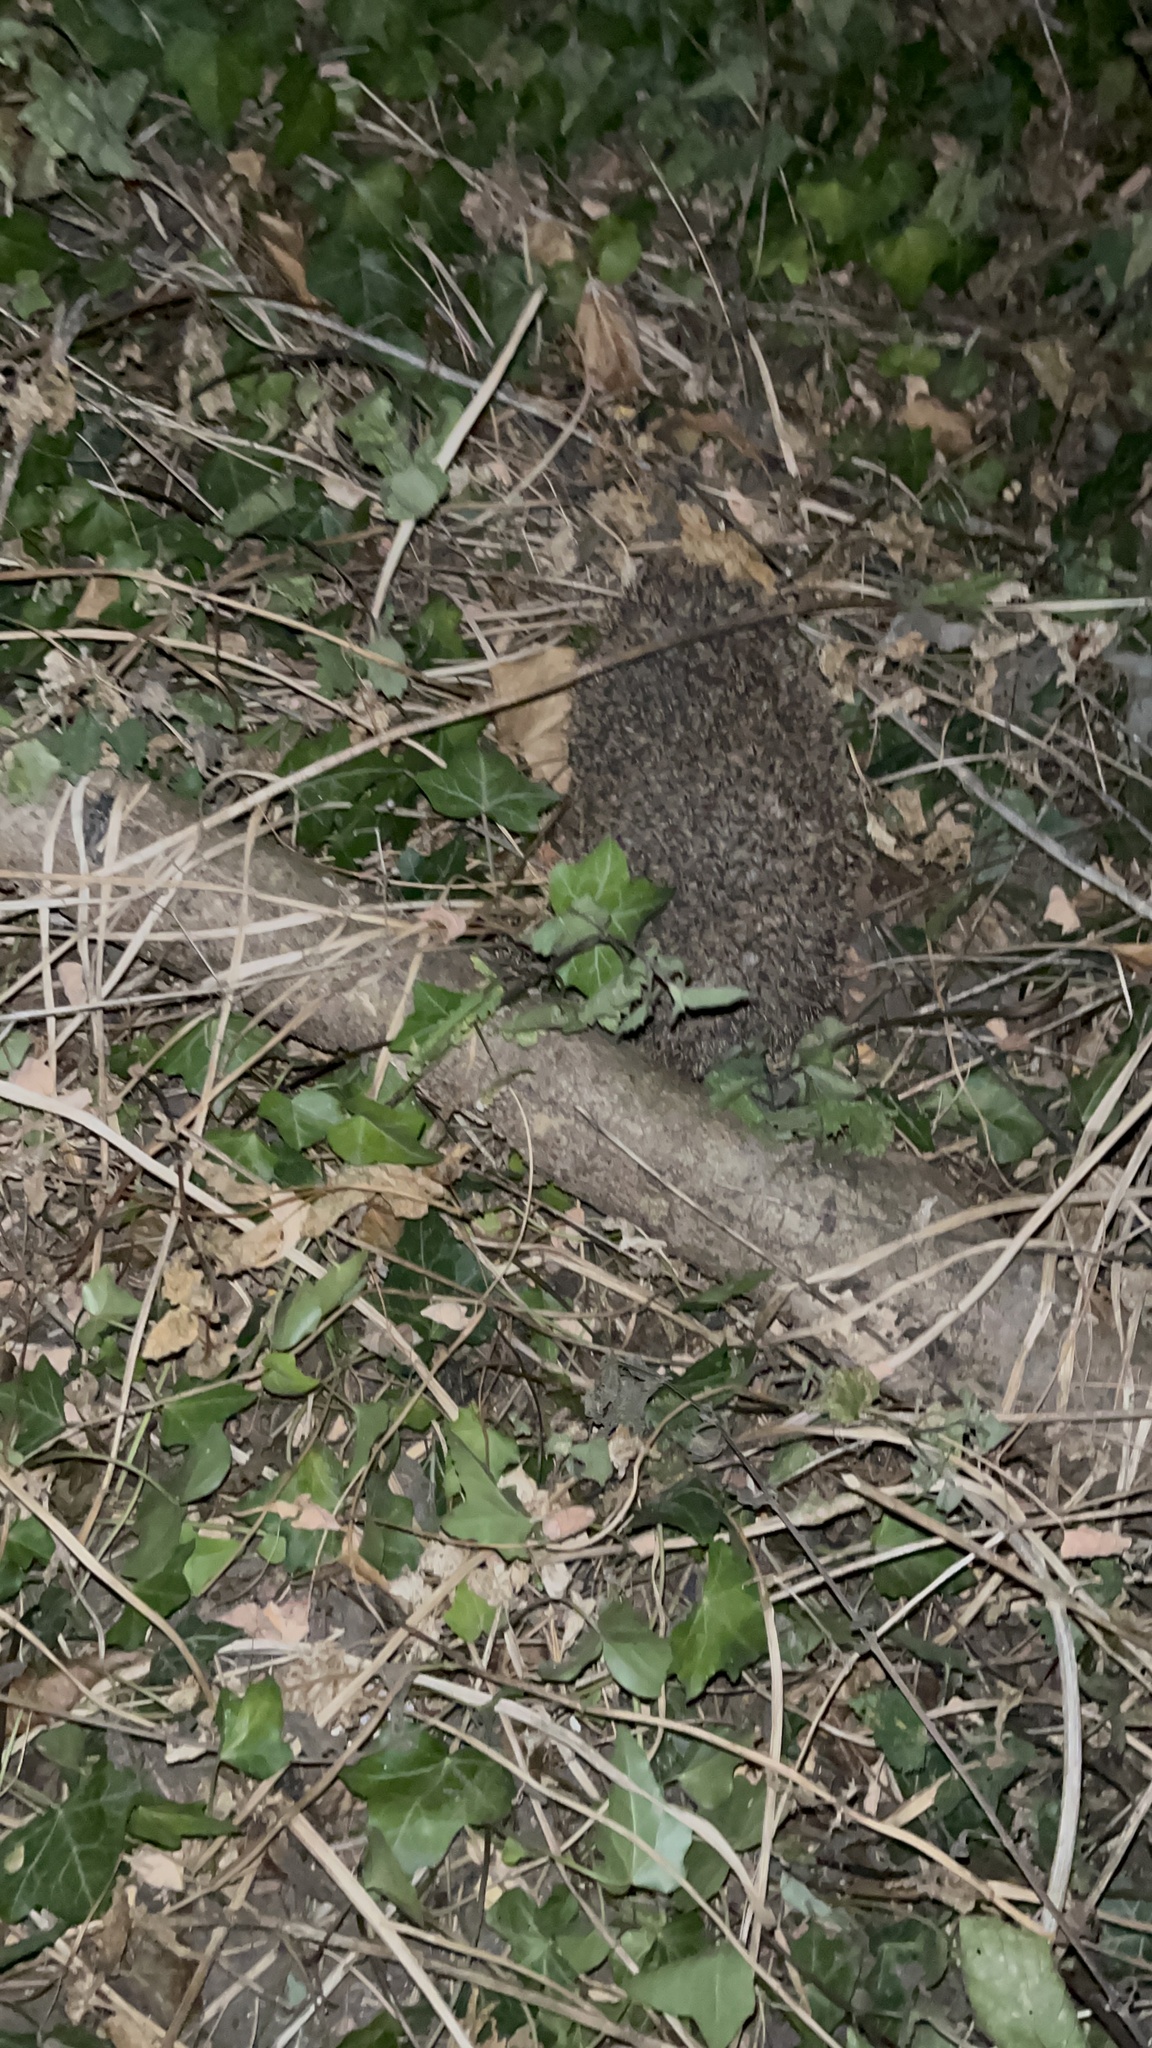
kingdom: Animalia
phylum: Chordata
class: Mammalia
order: Erinaceomorpha
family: Erinaceidae
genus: Erinaceus
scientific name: Erinaceus europaeus
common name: West european hedgehog
